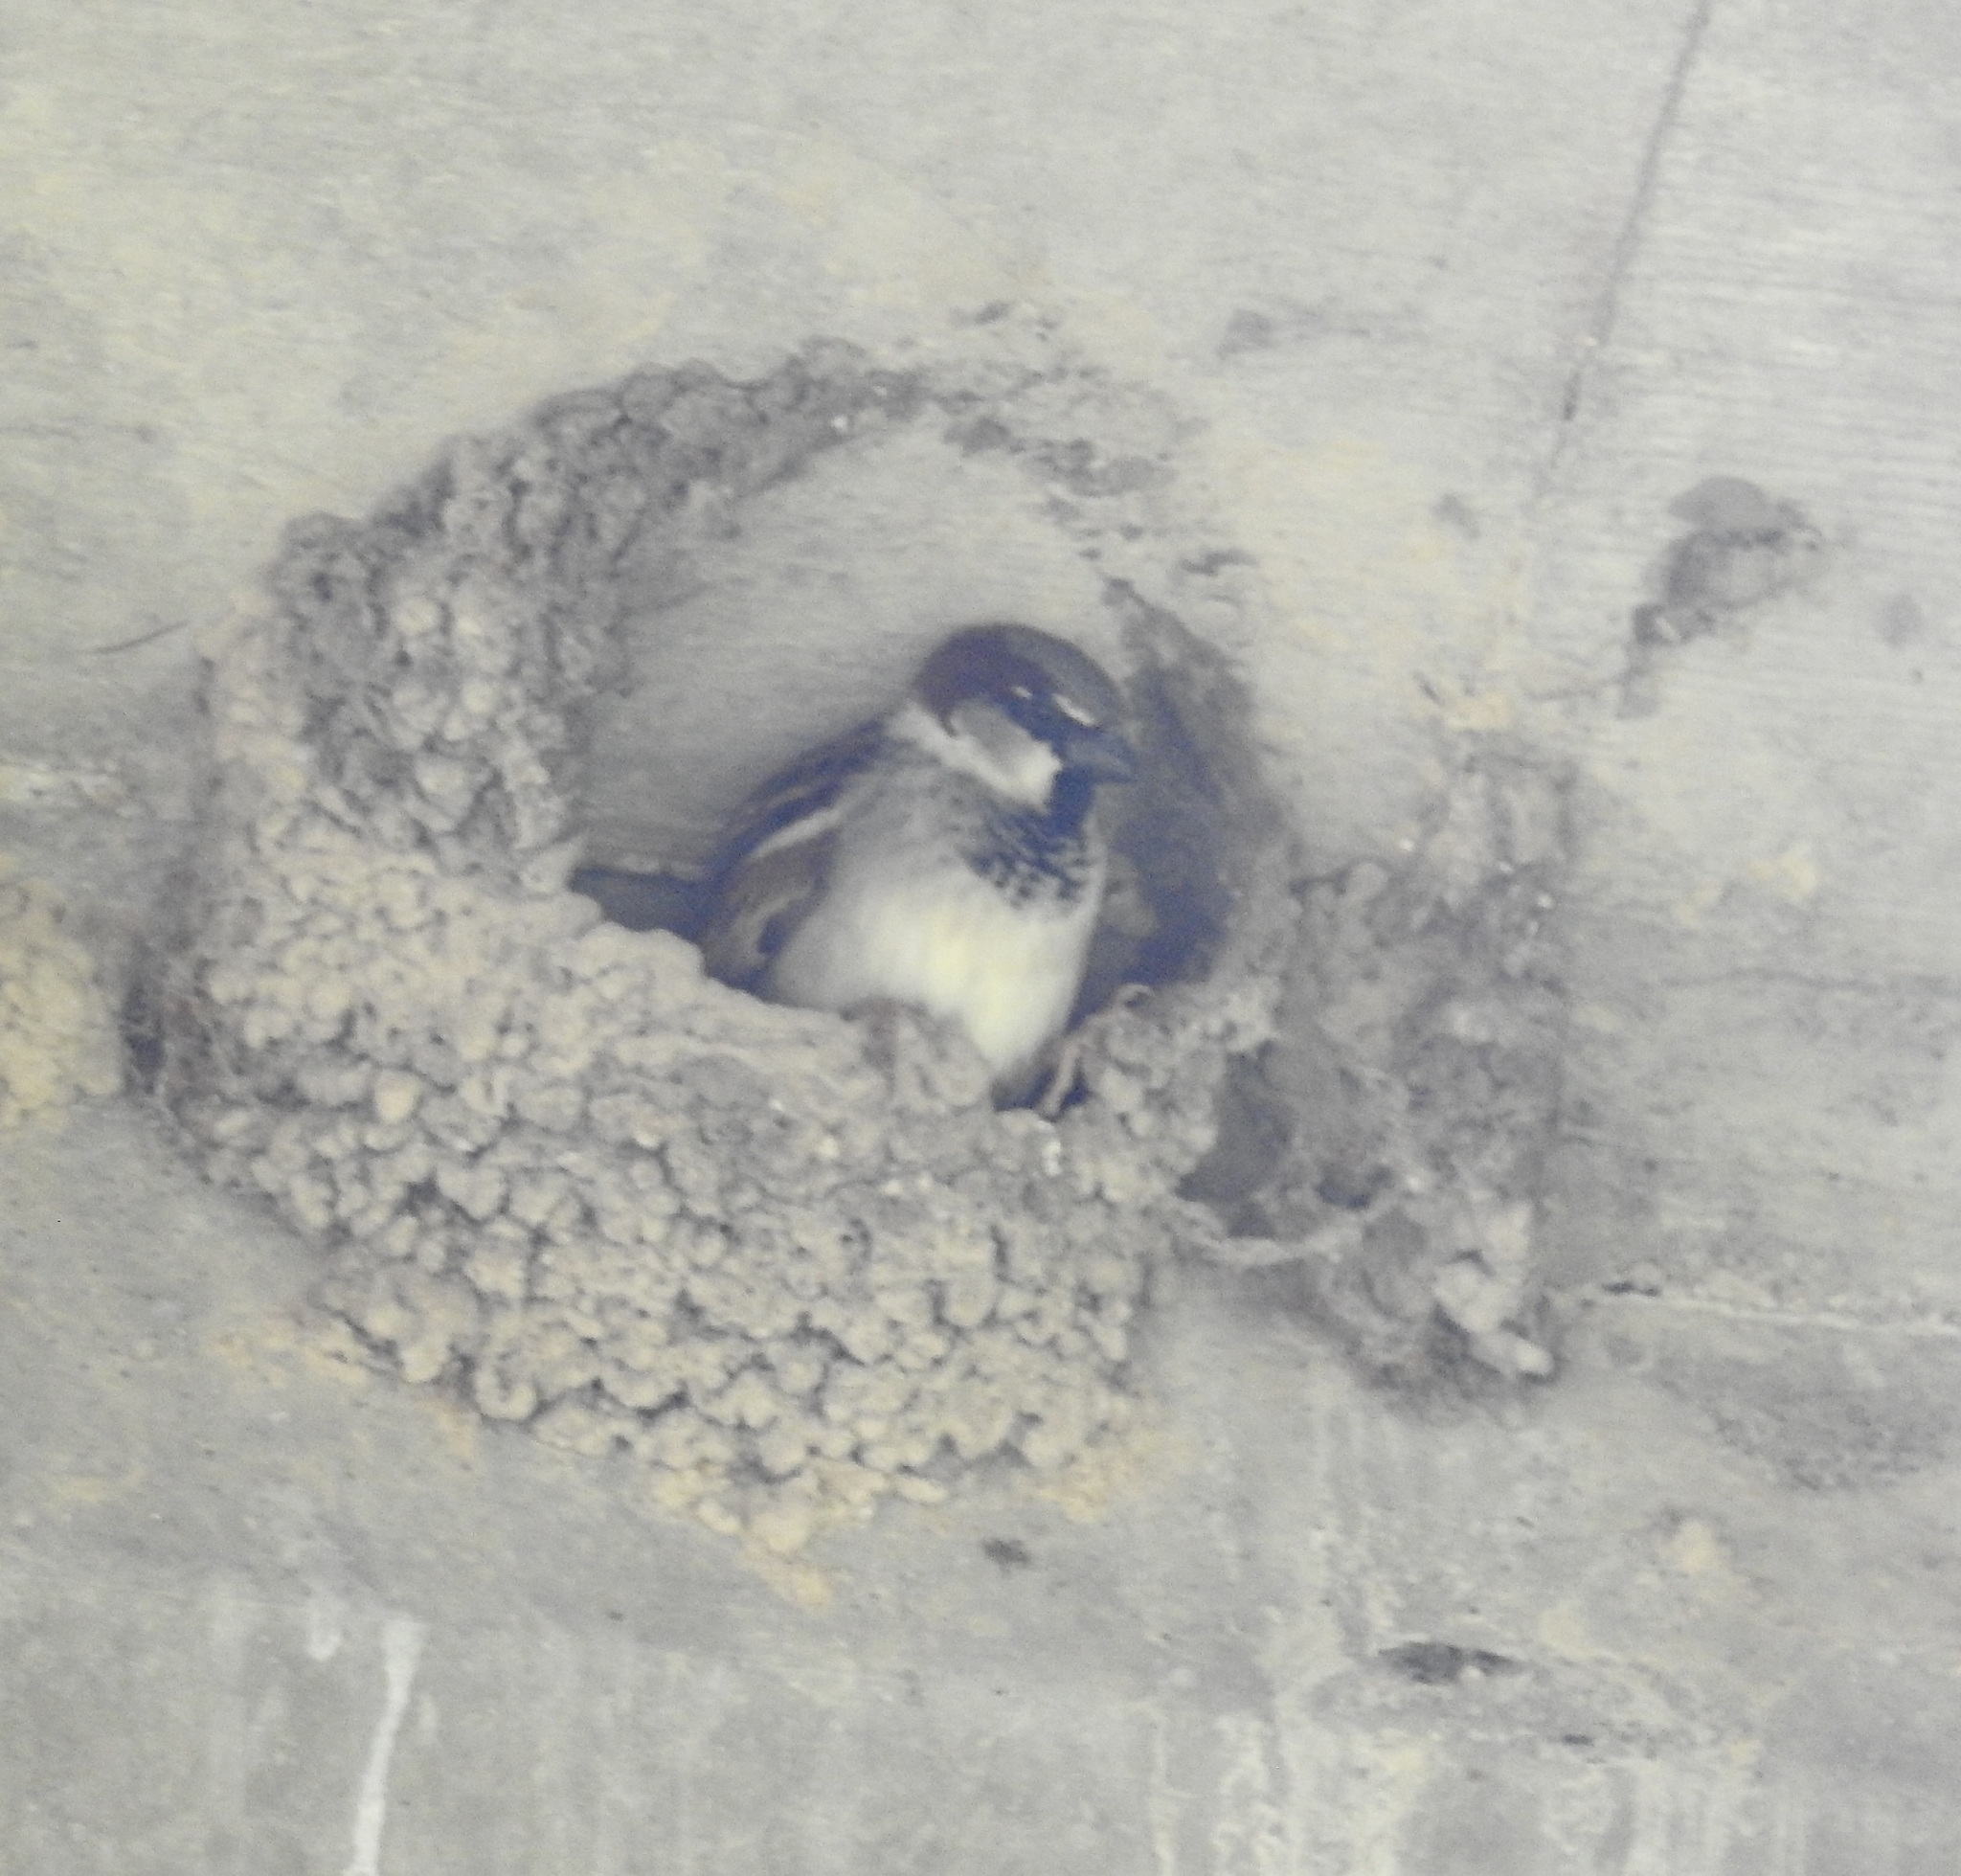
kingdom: Animalia
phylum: Chordata
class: Aves
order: Passeriformes
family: Passeridae
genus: Passer
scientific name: Passer domesticus
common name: House sparrow
